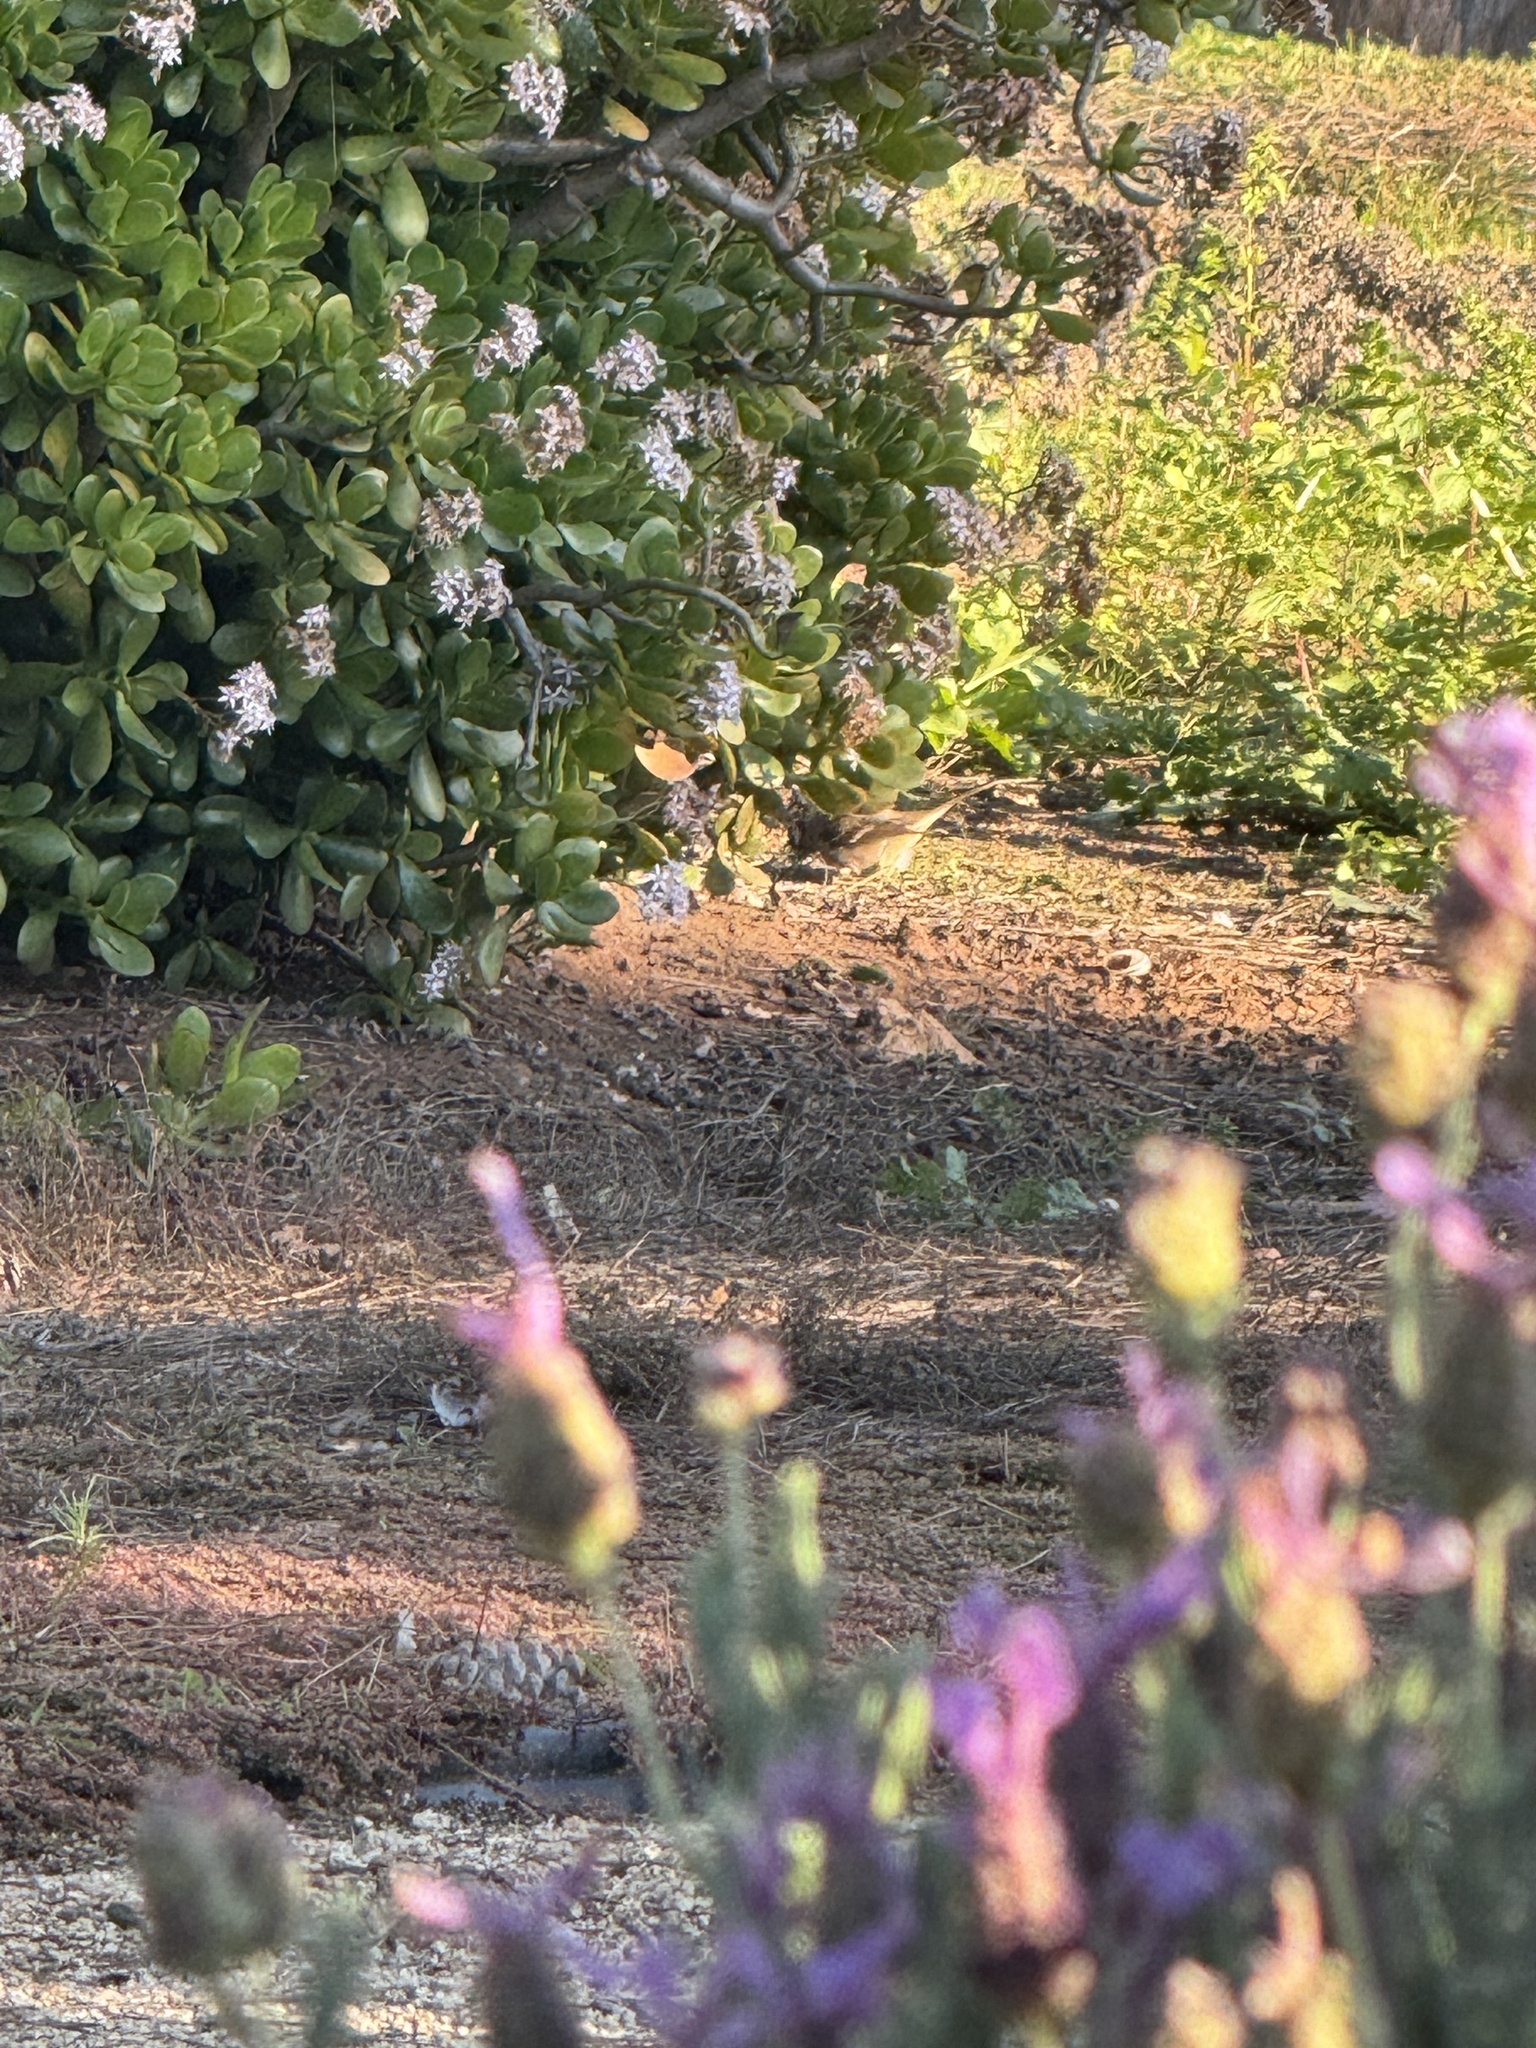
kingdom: Animalia
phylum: Chordata
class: Aves
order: Passeriformes
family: Passerellidae
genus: Zonotrichia
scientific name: Zonotrichia leucophrys
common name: White-crowned sparrow
